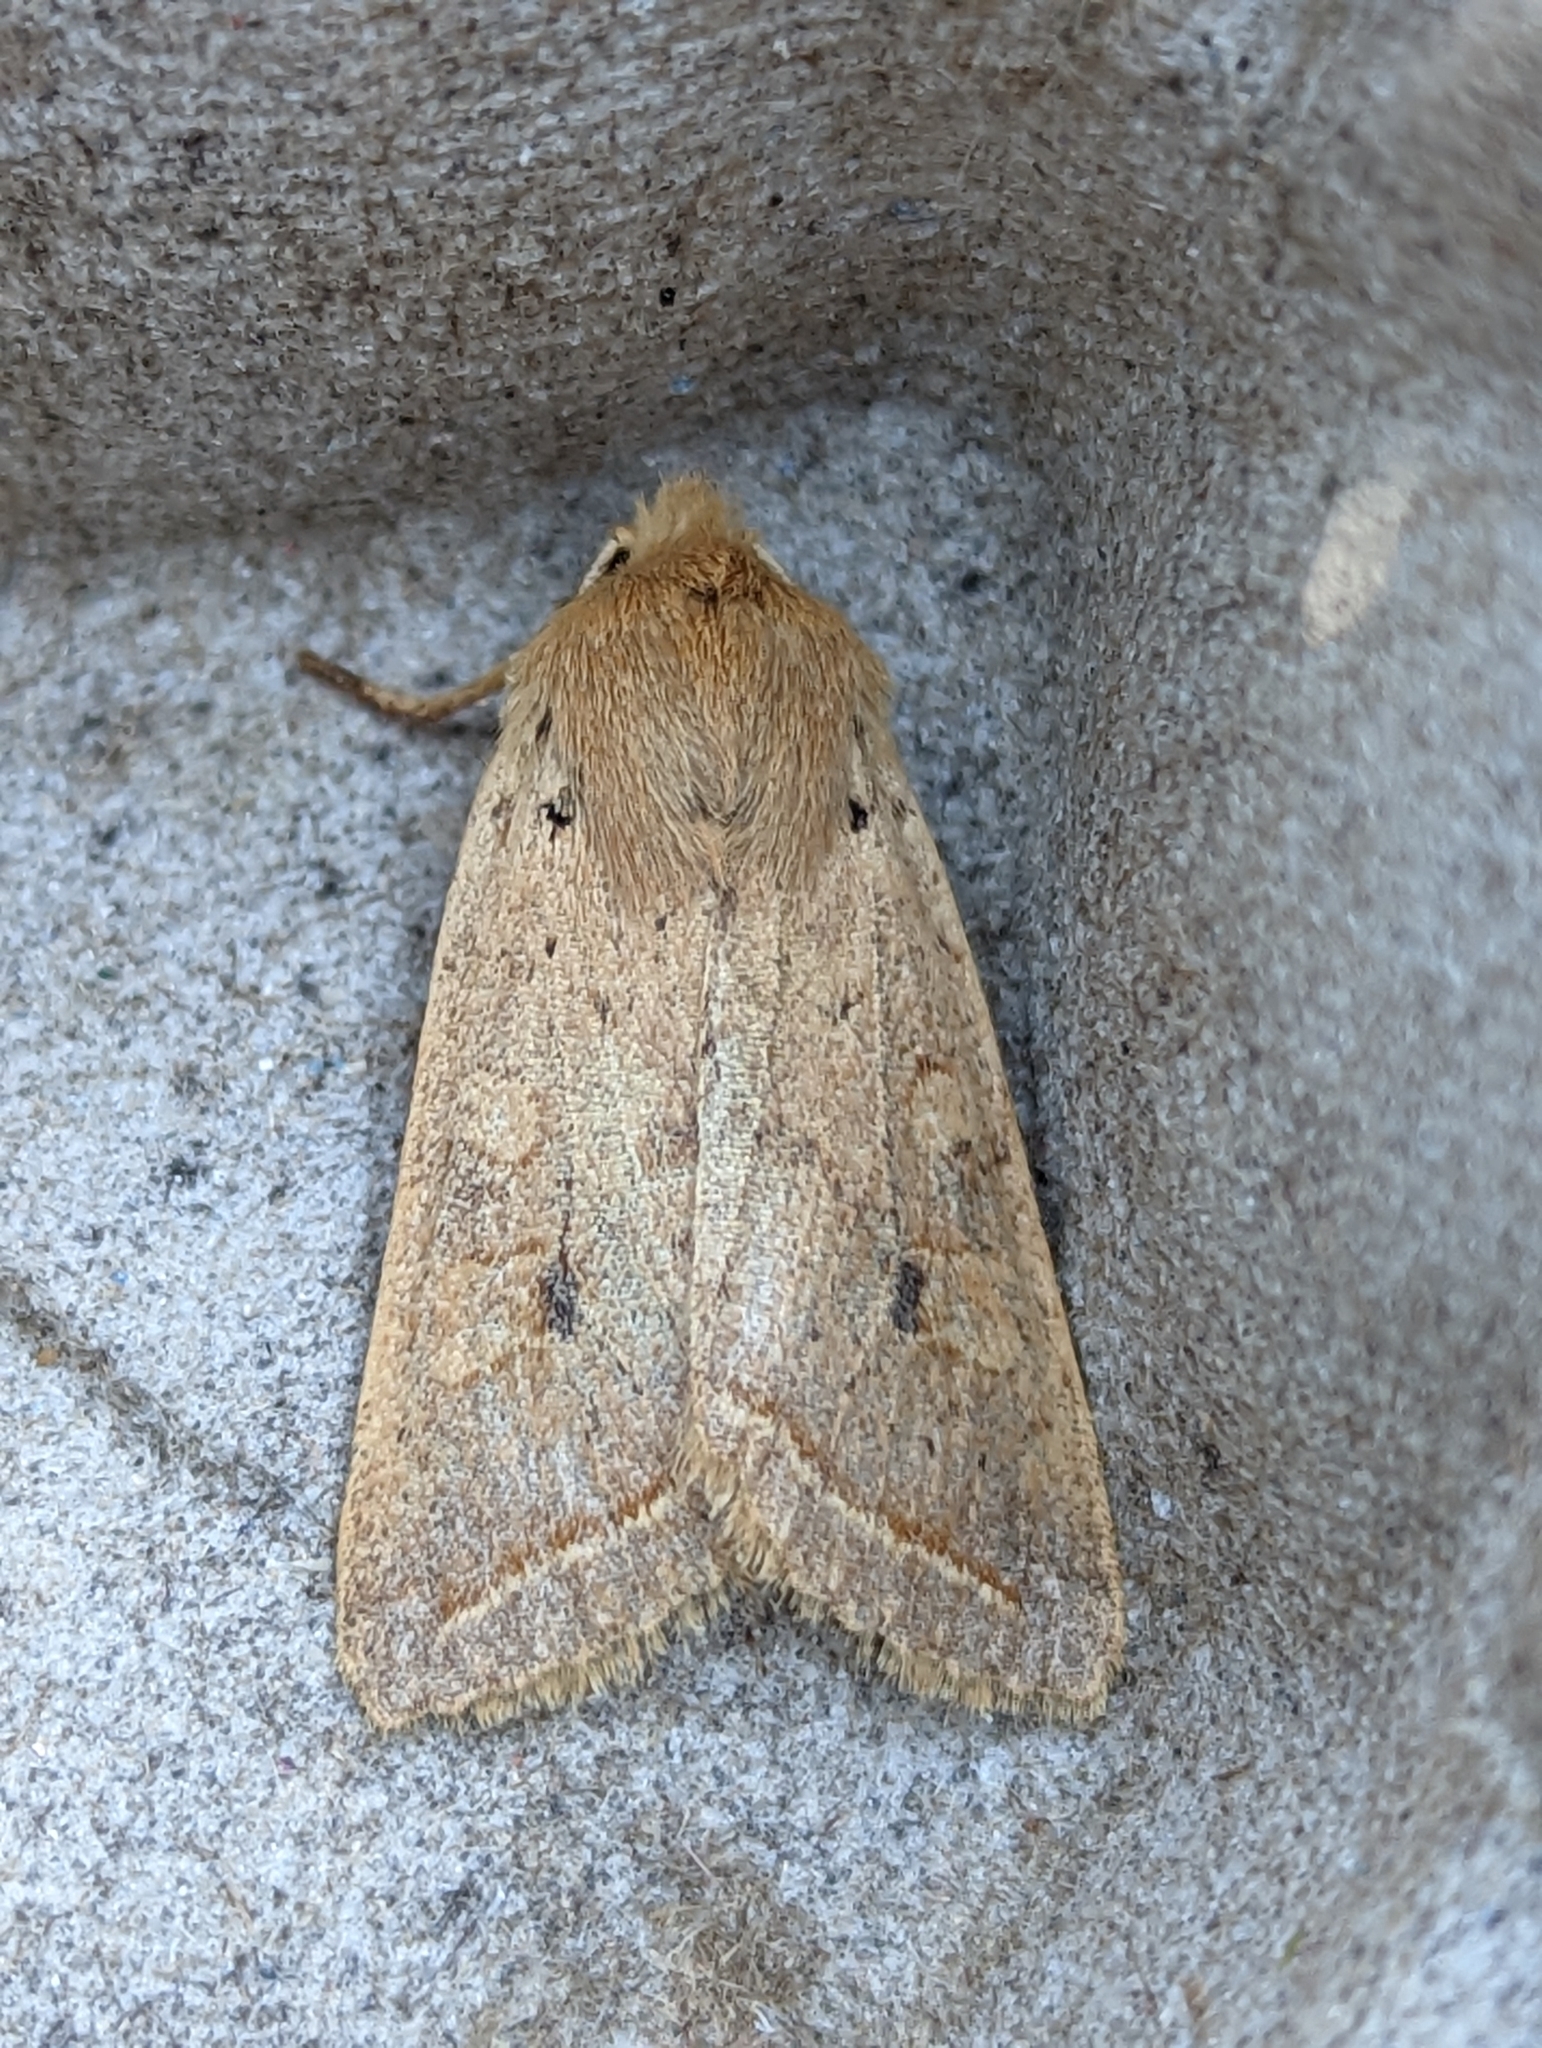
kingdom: Animalia
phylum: Arthropoda
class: Insecta
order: Lepidoptera
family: Noctuidae
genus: Agrochola
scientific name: Agrochola macilenta
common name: Yellow-line quaker
